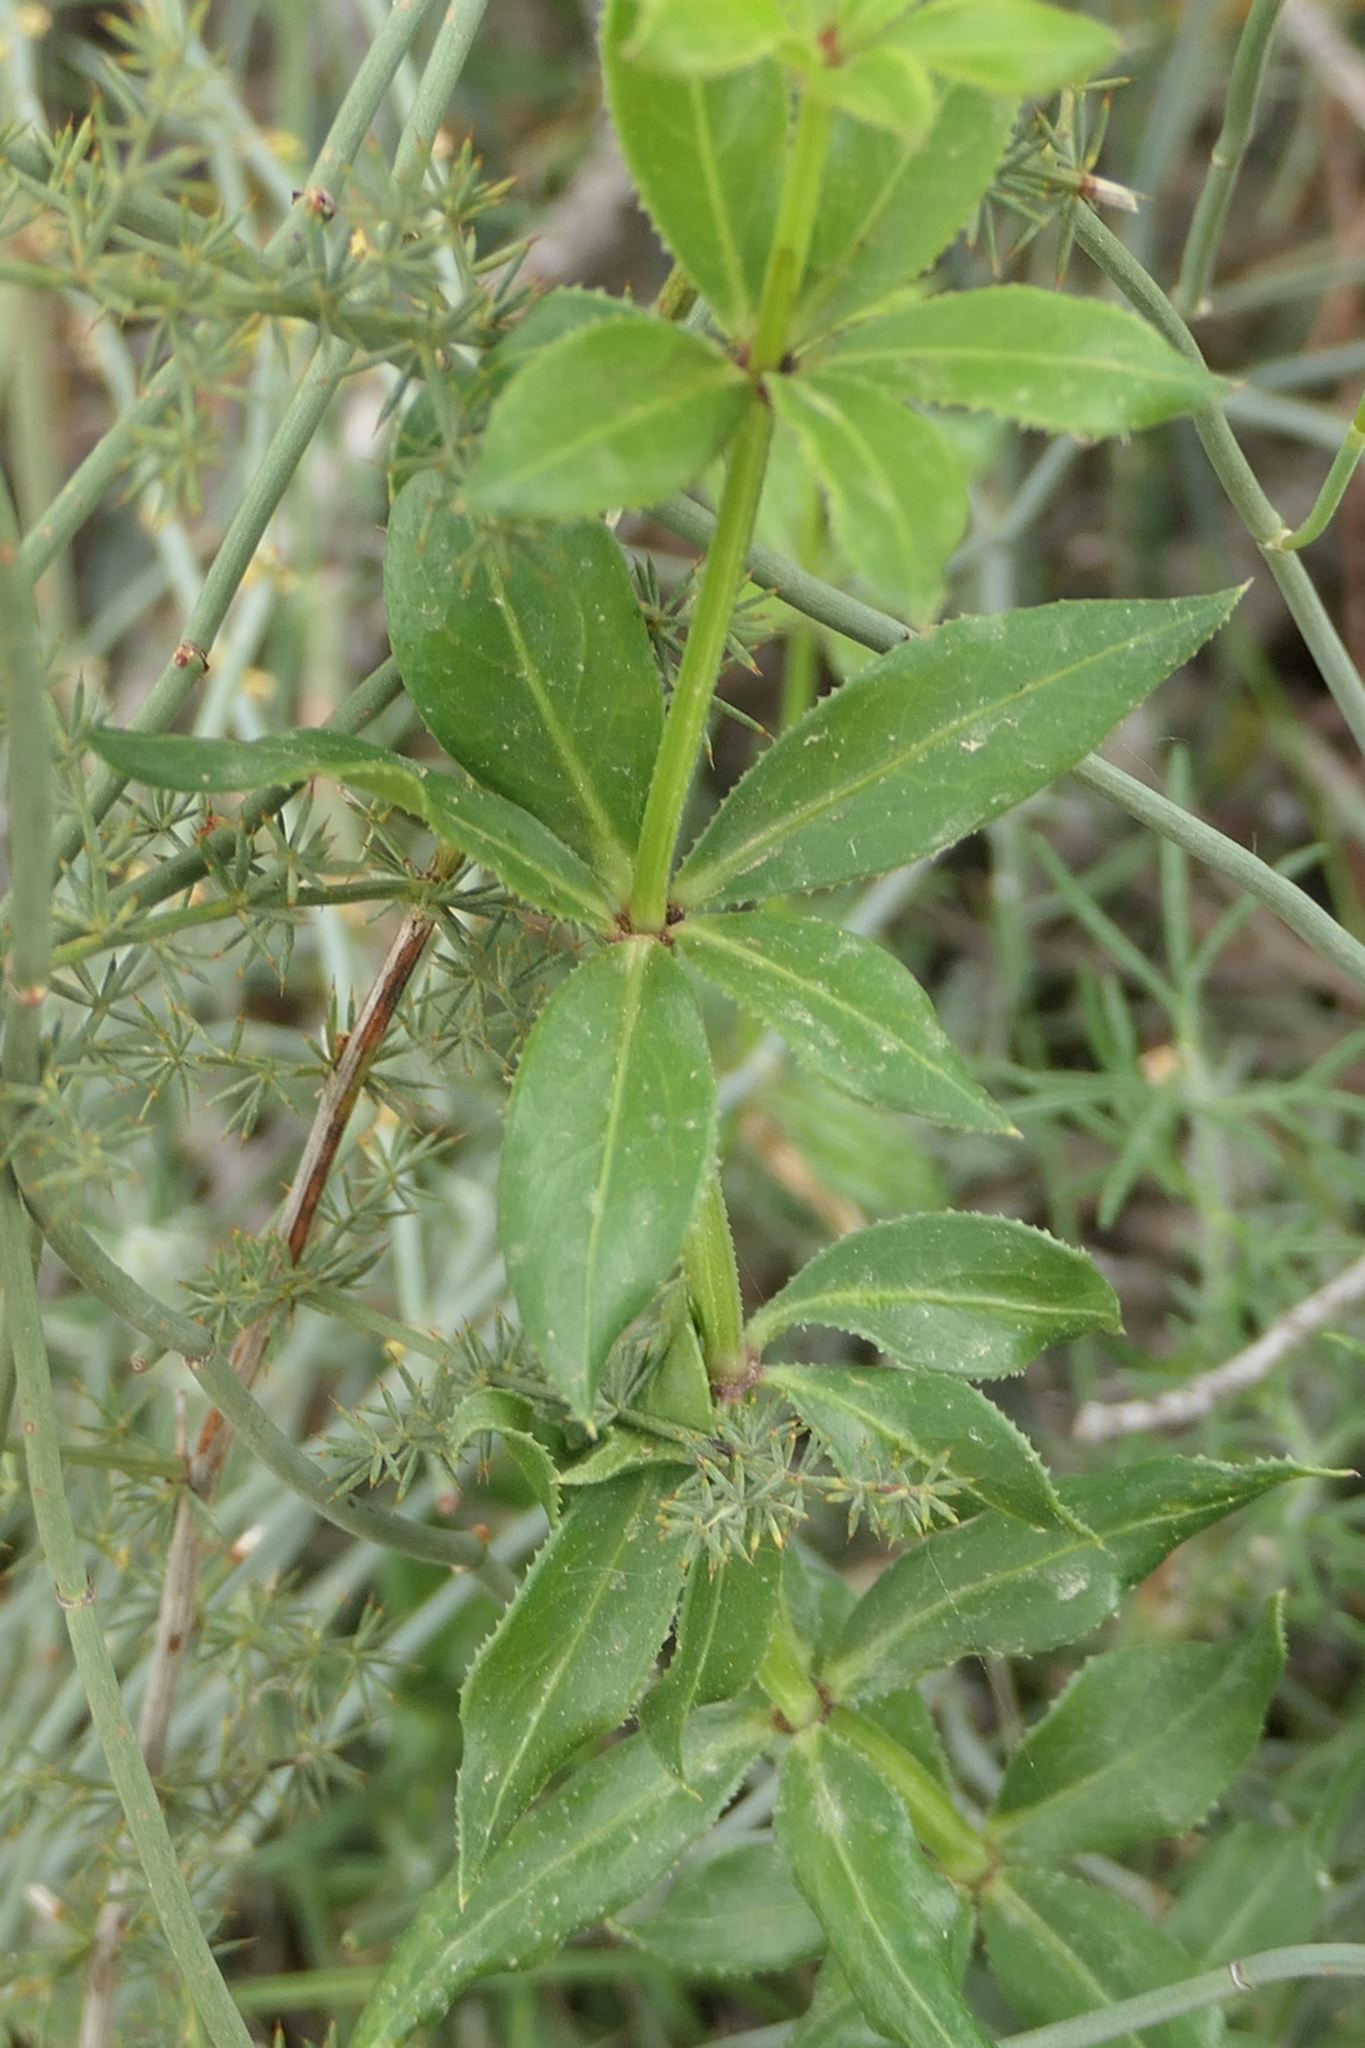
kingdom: Plantae
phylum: Tracheophyta
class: Magnoliopsida
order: Gentianales
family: Rubiaceae
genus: Rubia
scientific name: Rubia peregrina
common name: Wild madder
